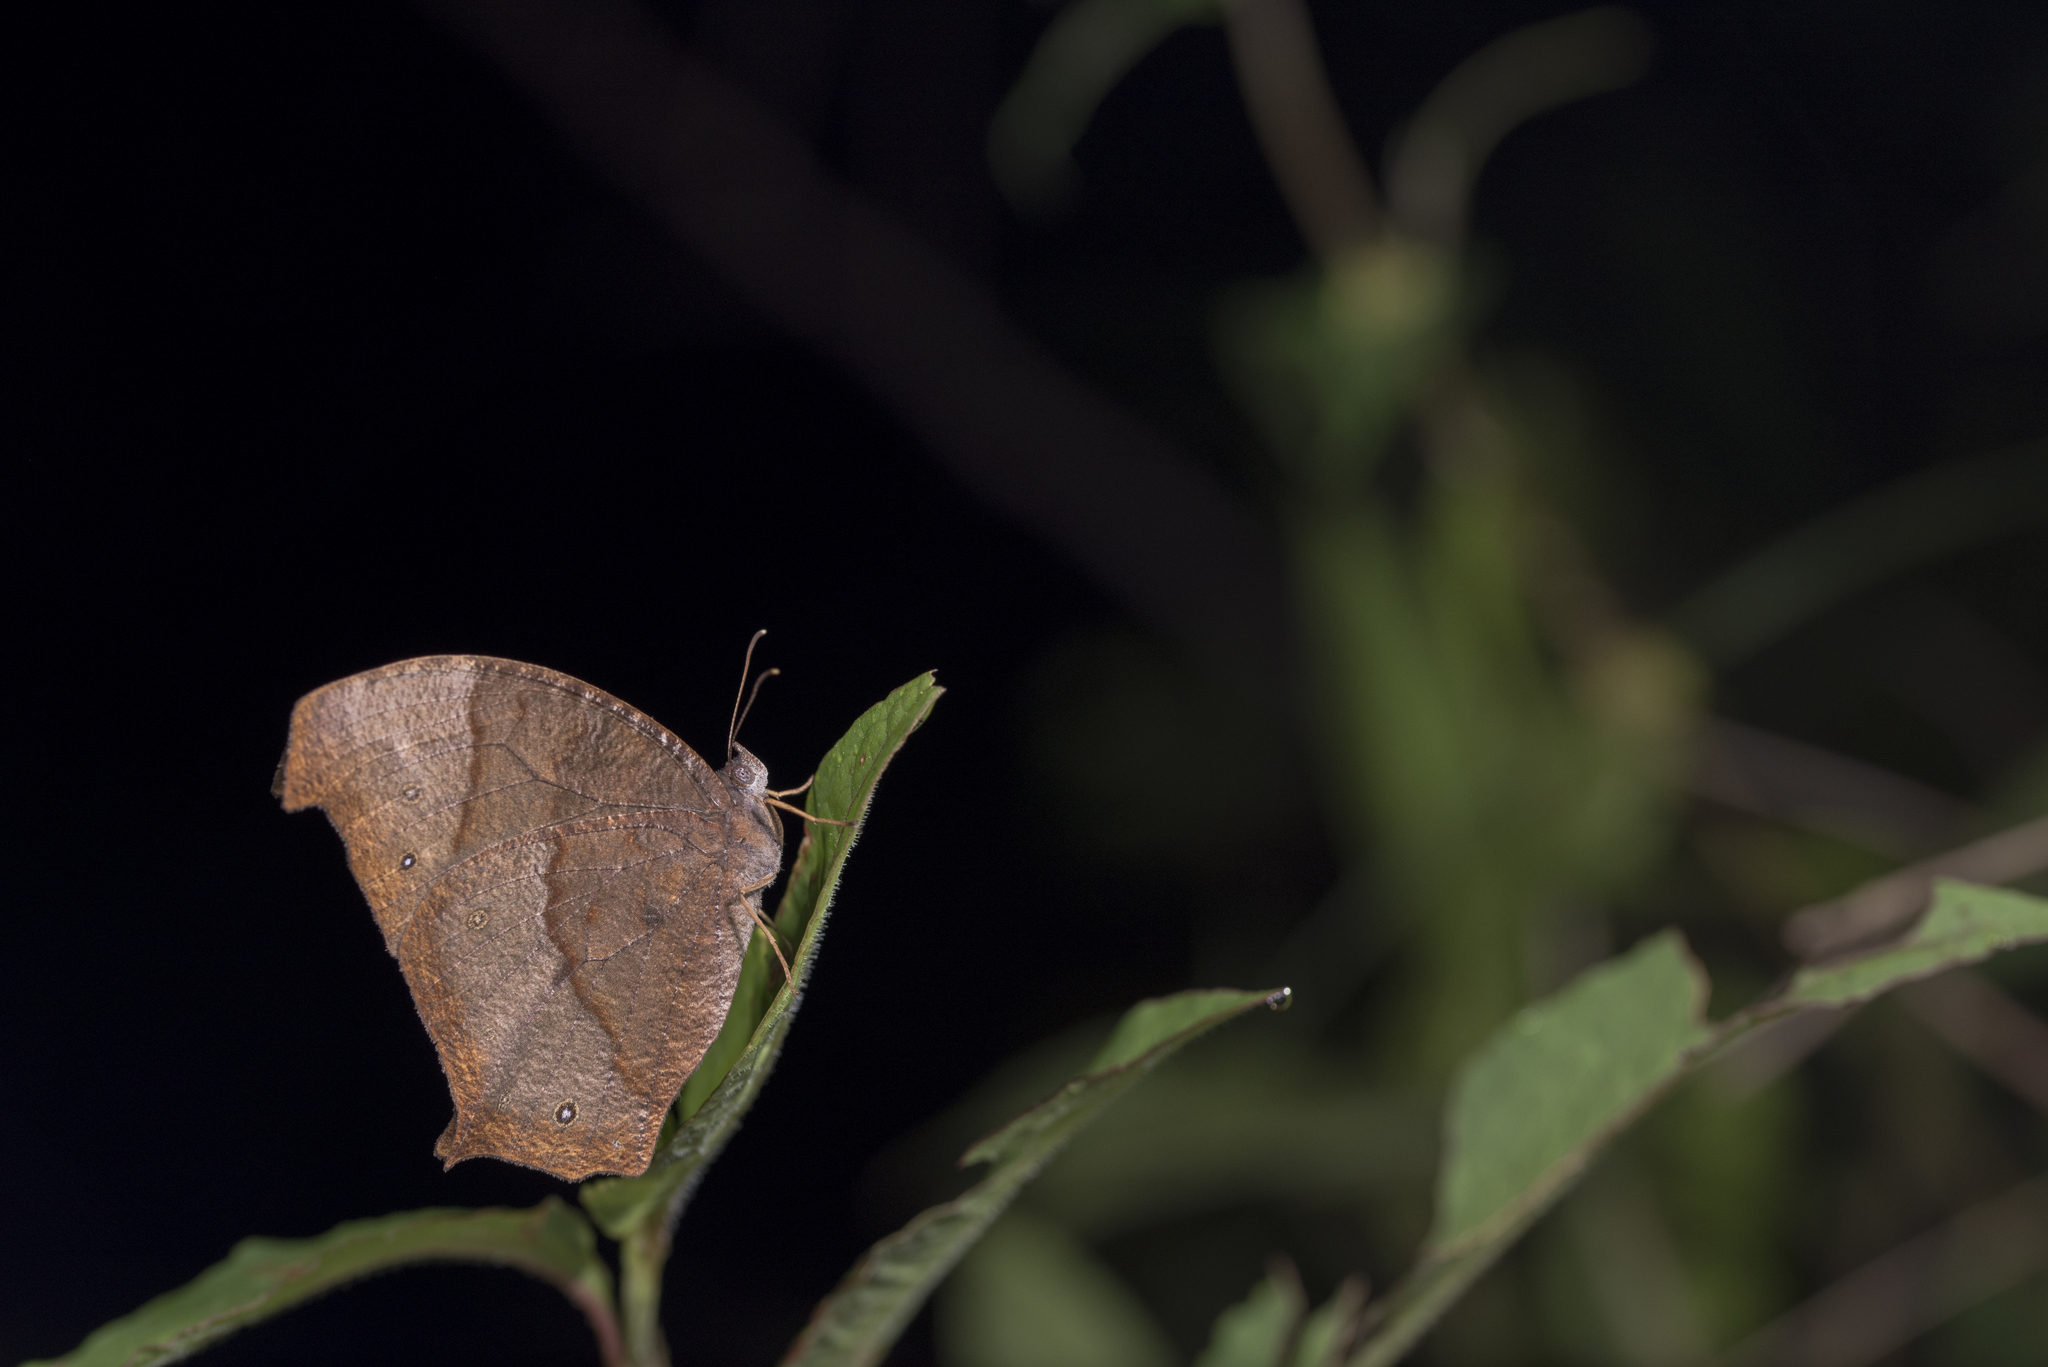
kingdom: Animalia
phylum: Arthropoda
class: Insecta
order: Lepidoptera
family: Nymphalidae
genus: Melanitis
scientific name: Melanitis phedima
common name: Dark evening brown
